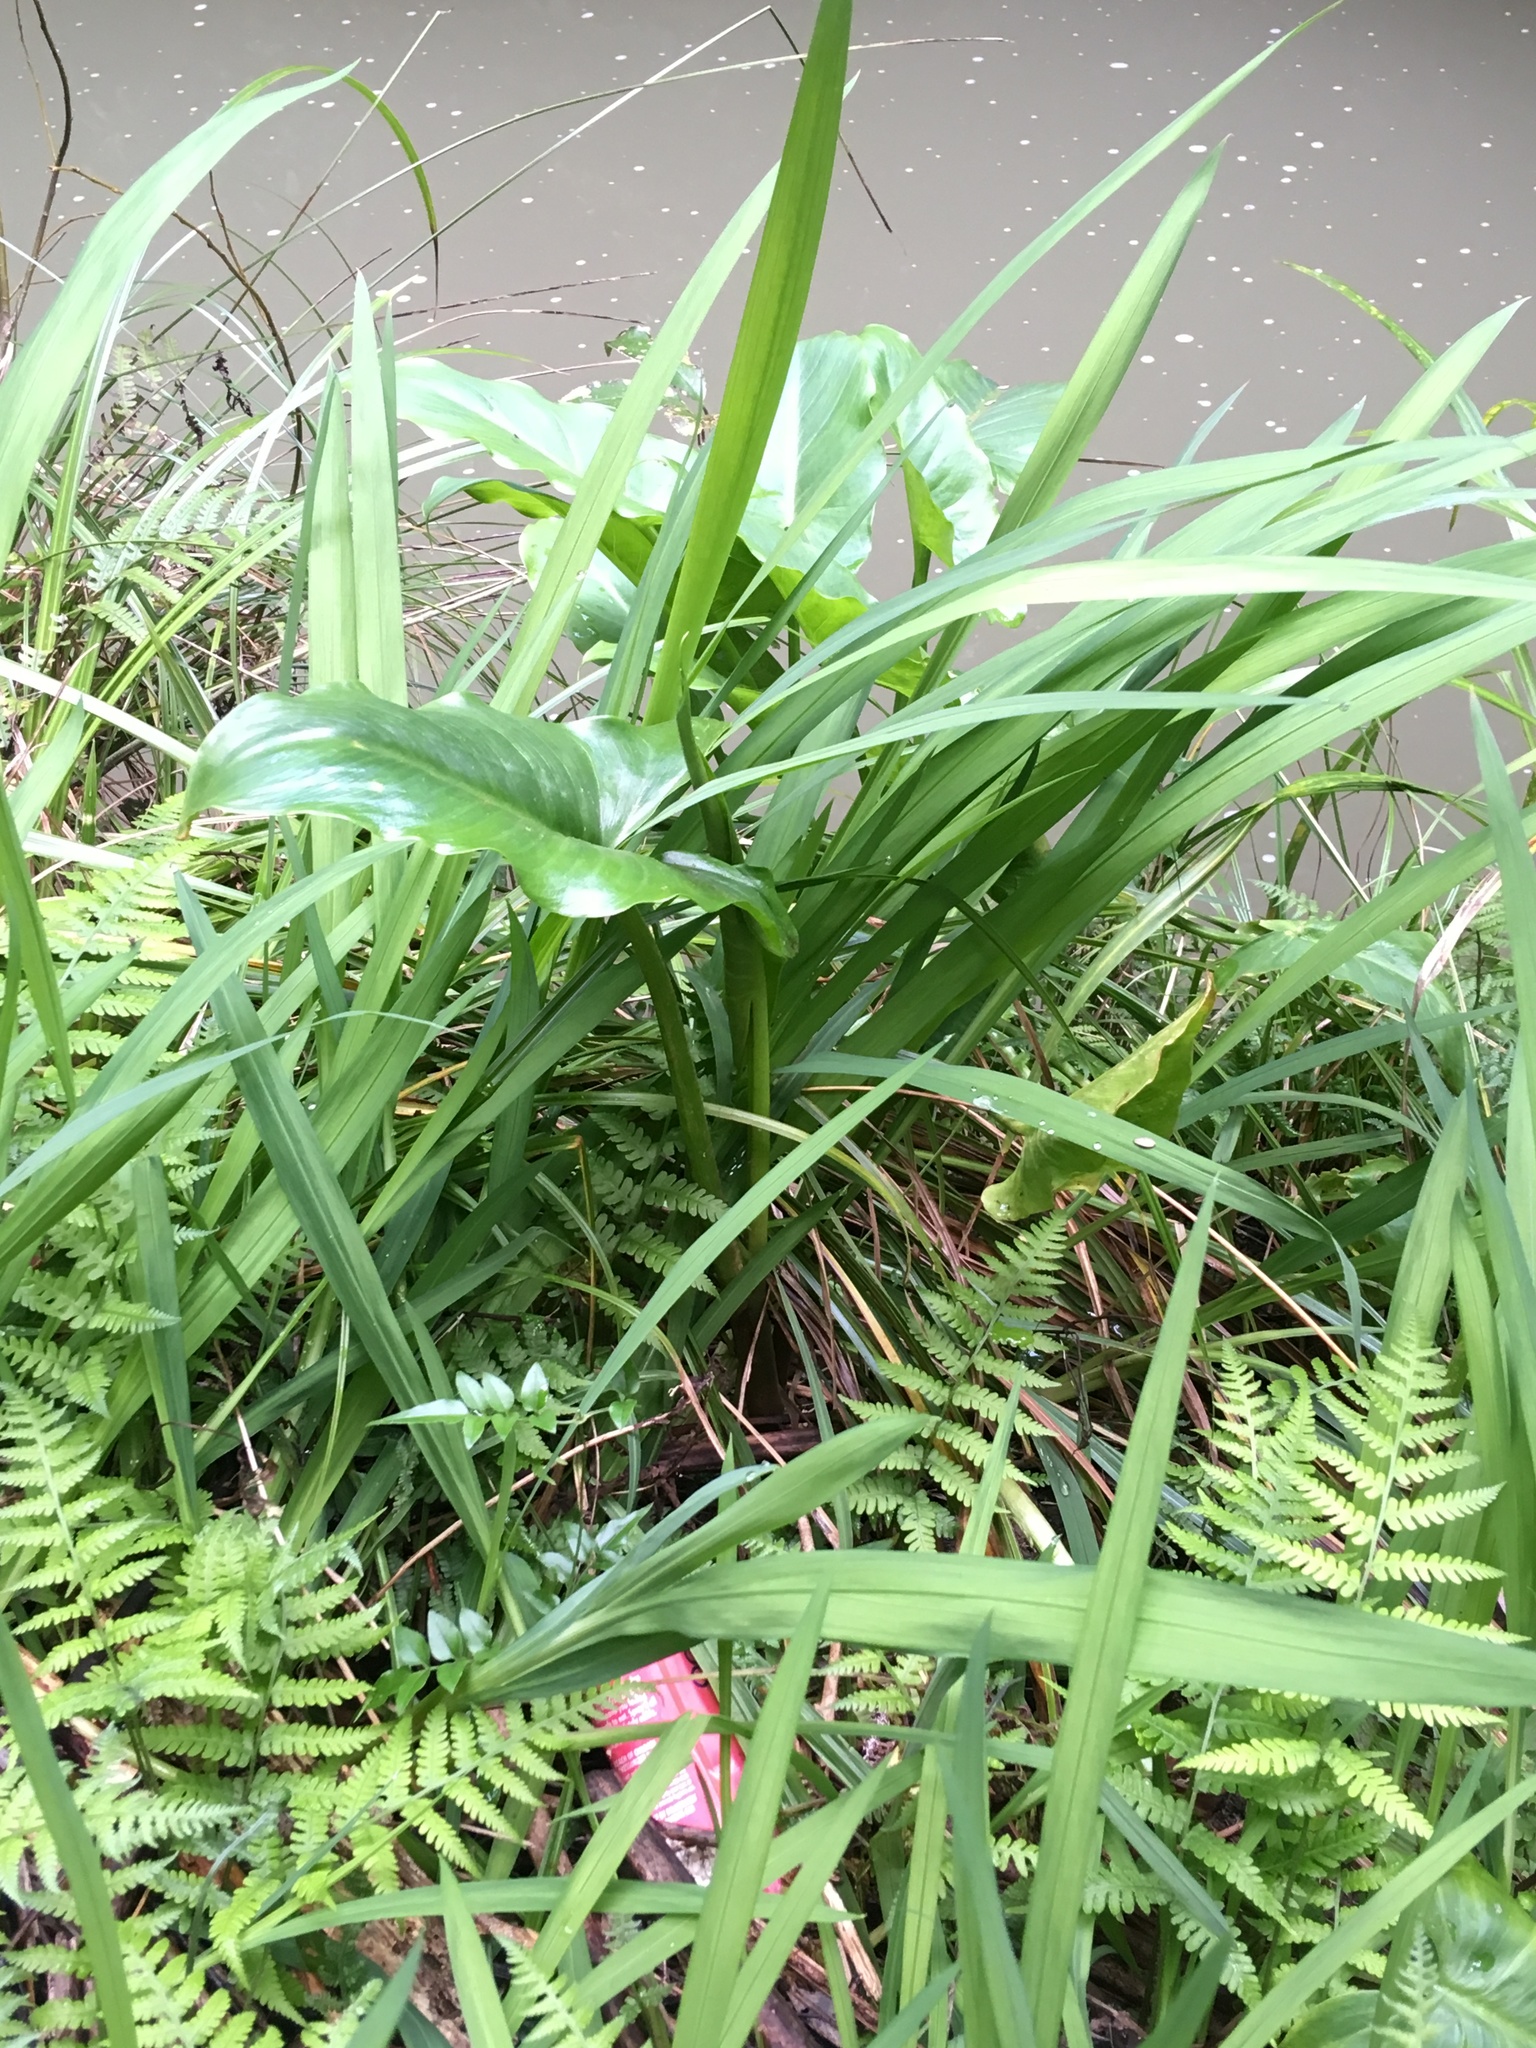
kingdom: Plantae
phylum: Tracheophyta
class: Liliopsida
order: Alismatales
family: Araceae
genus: Zantedeschia
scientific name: Zantedeschia aethiopica
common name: Altar-lily
